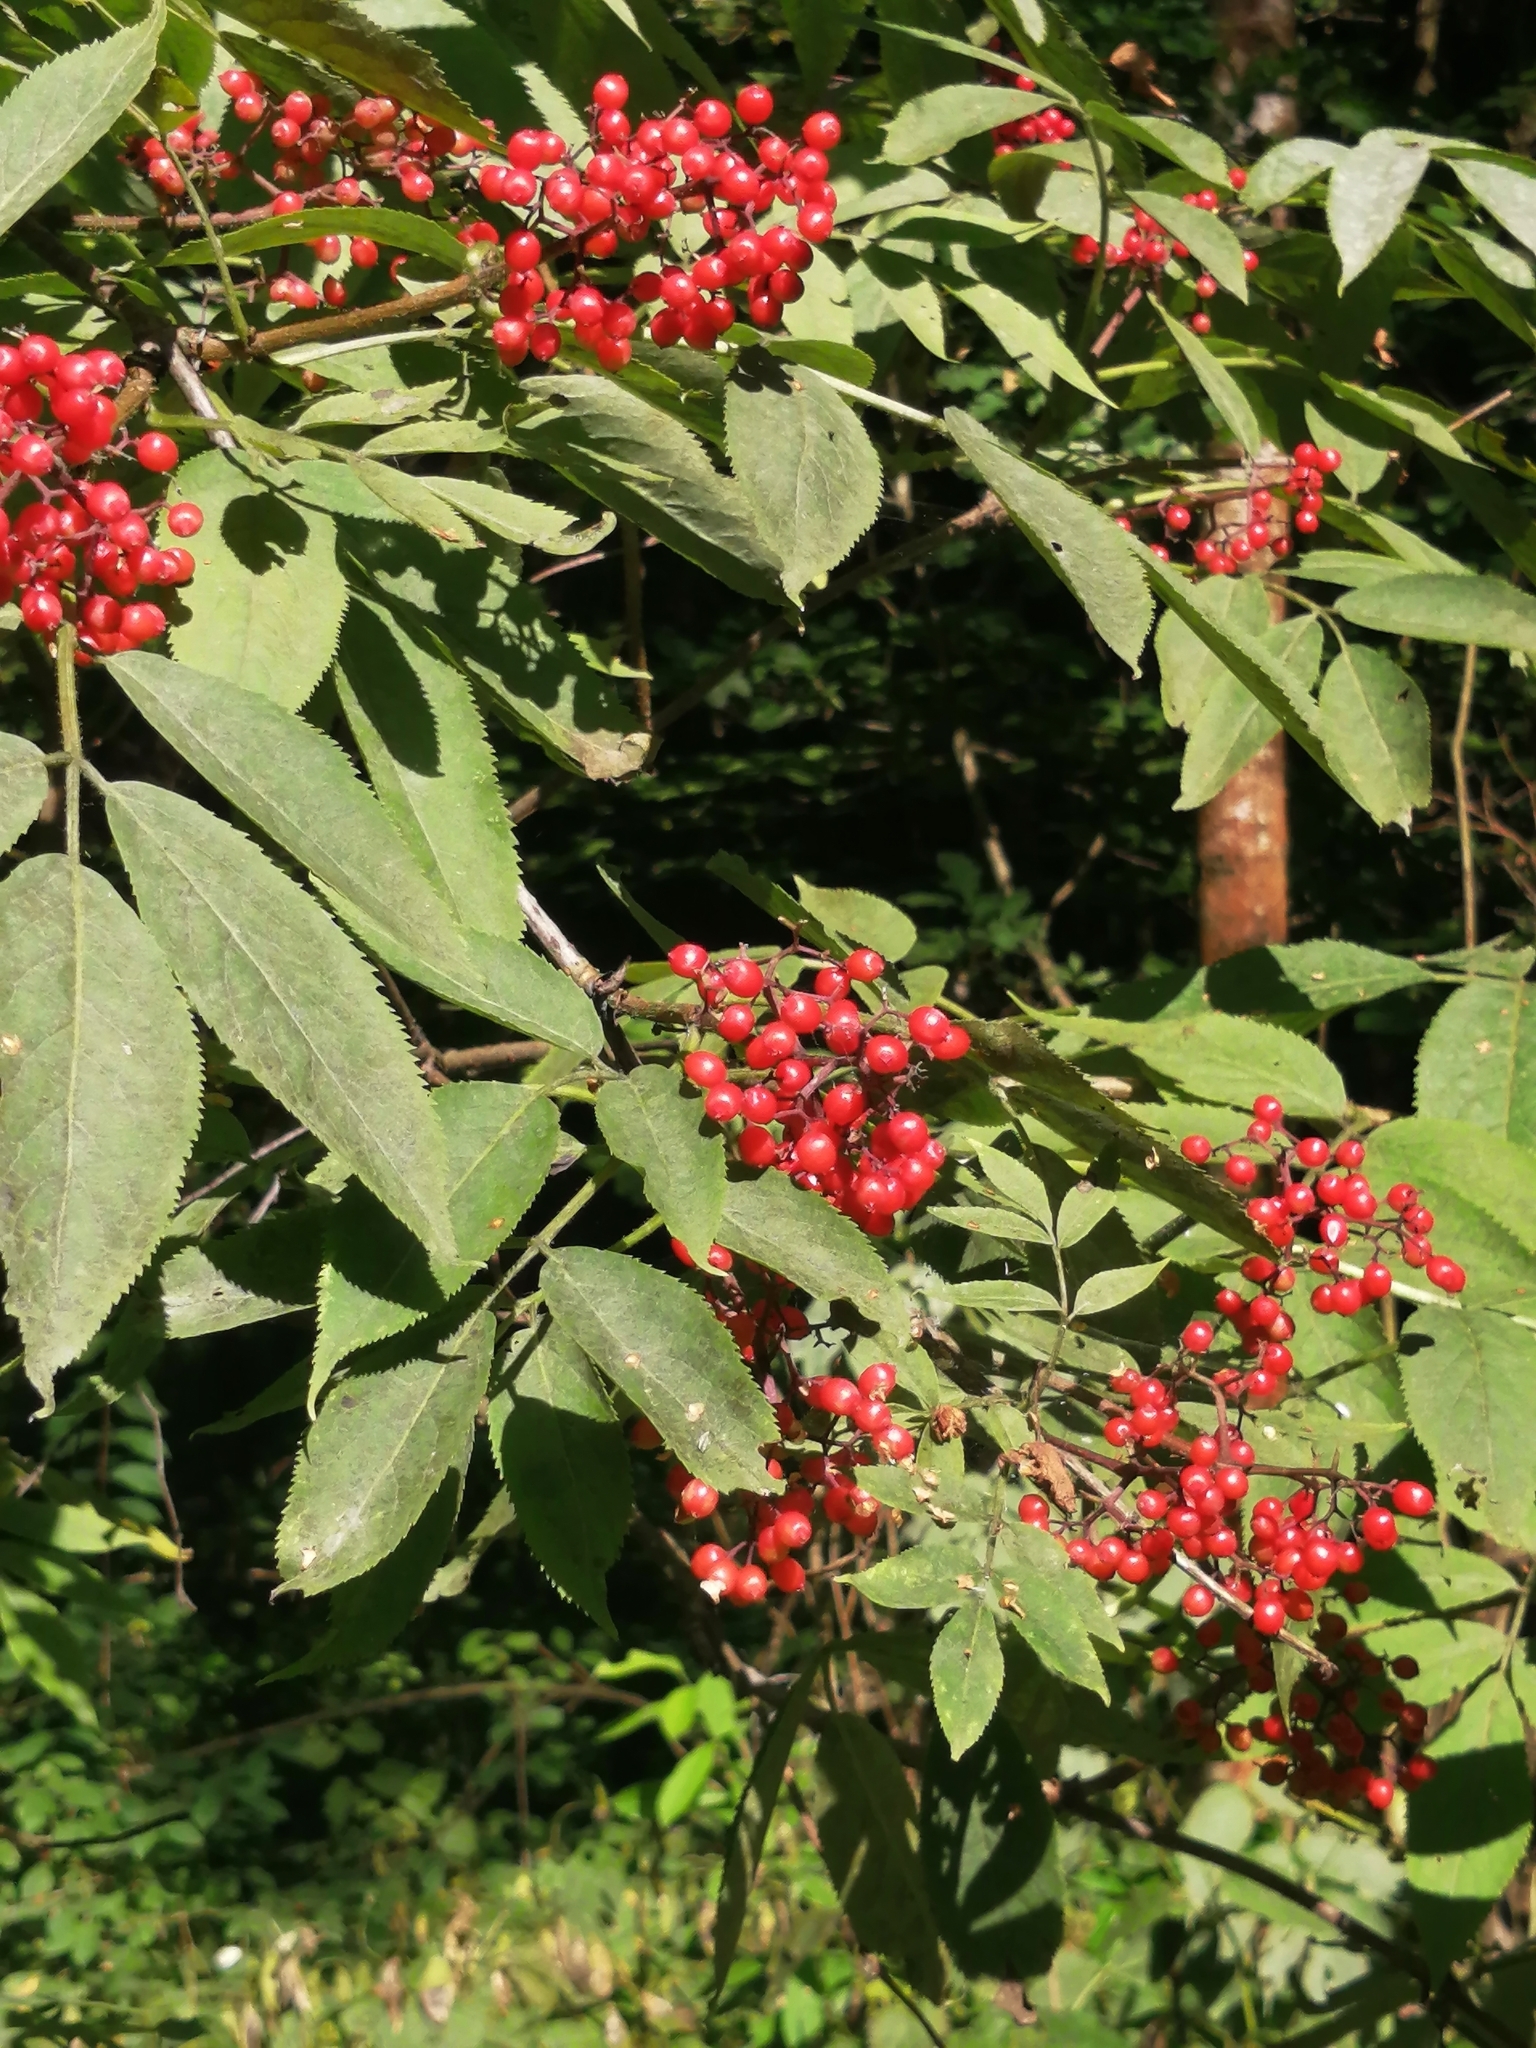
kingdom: Plantae
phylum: Tracheophyta
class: Magnoliopsida
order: Dipsacales
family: Viburnaceae
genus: Sambucus
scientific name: Sambucus racemosa
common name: Red-berried elder
